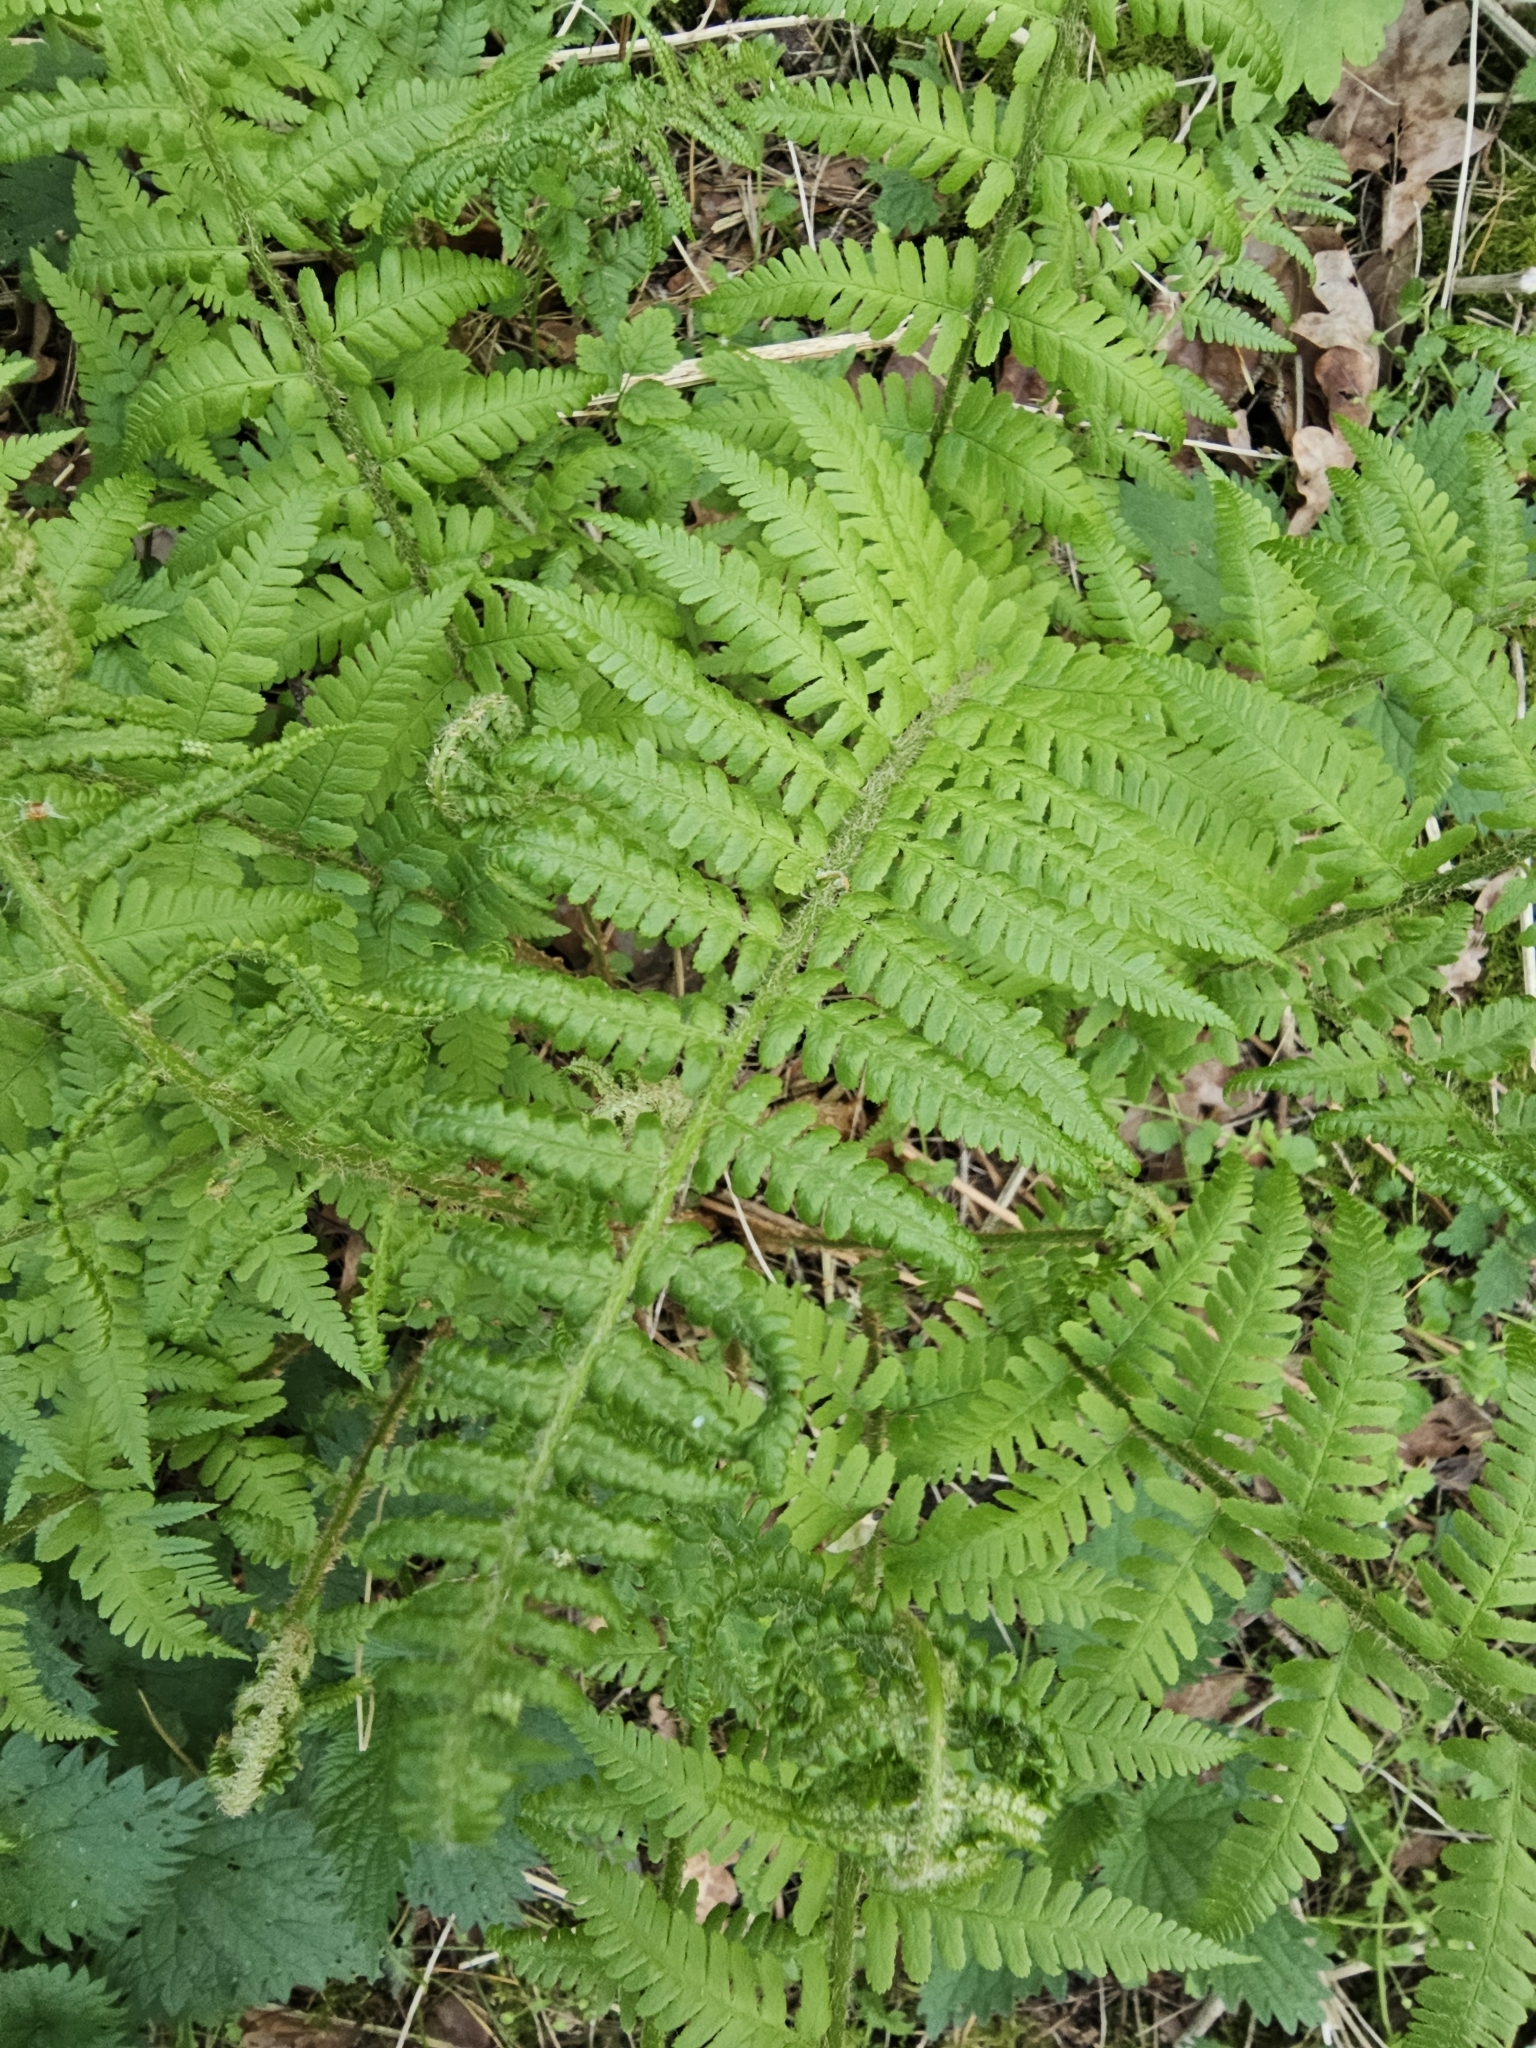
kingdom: Plantae
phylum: Tracheophyta
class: Polypodiopsida
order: Polypodiales
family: Dryopteridaceae
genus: Dryopteris
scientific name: Dryopteris filix-mas
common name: Male fern
